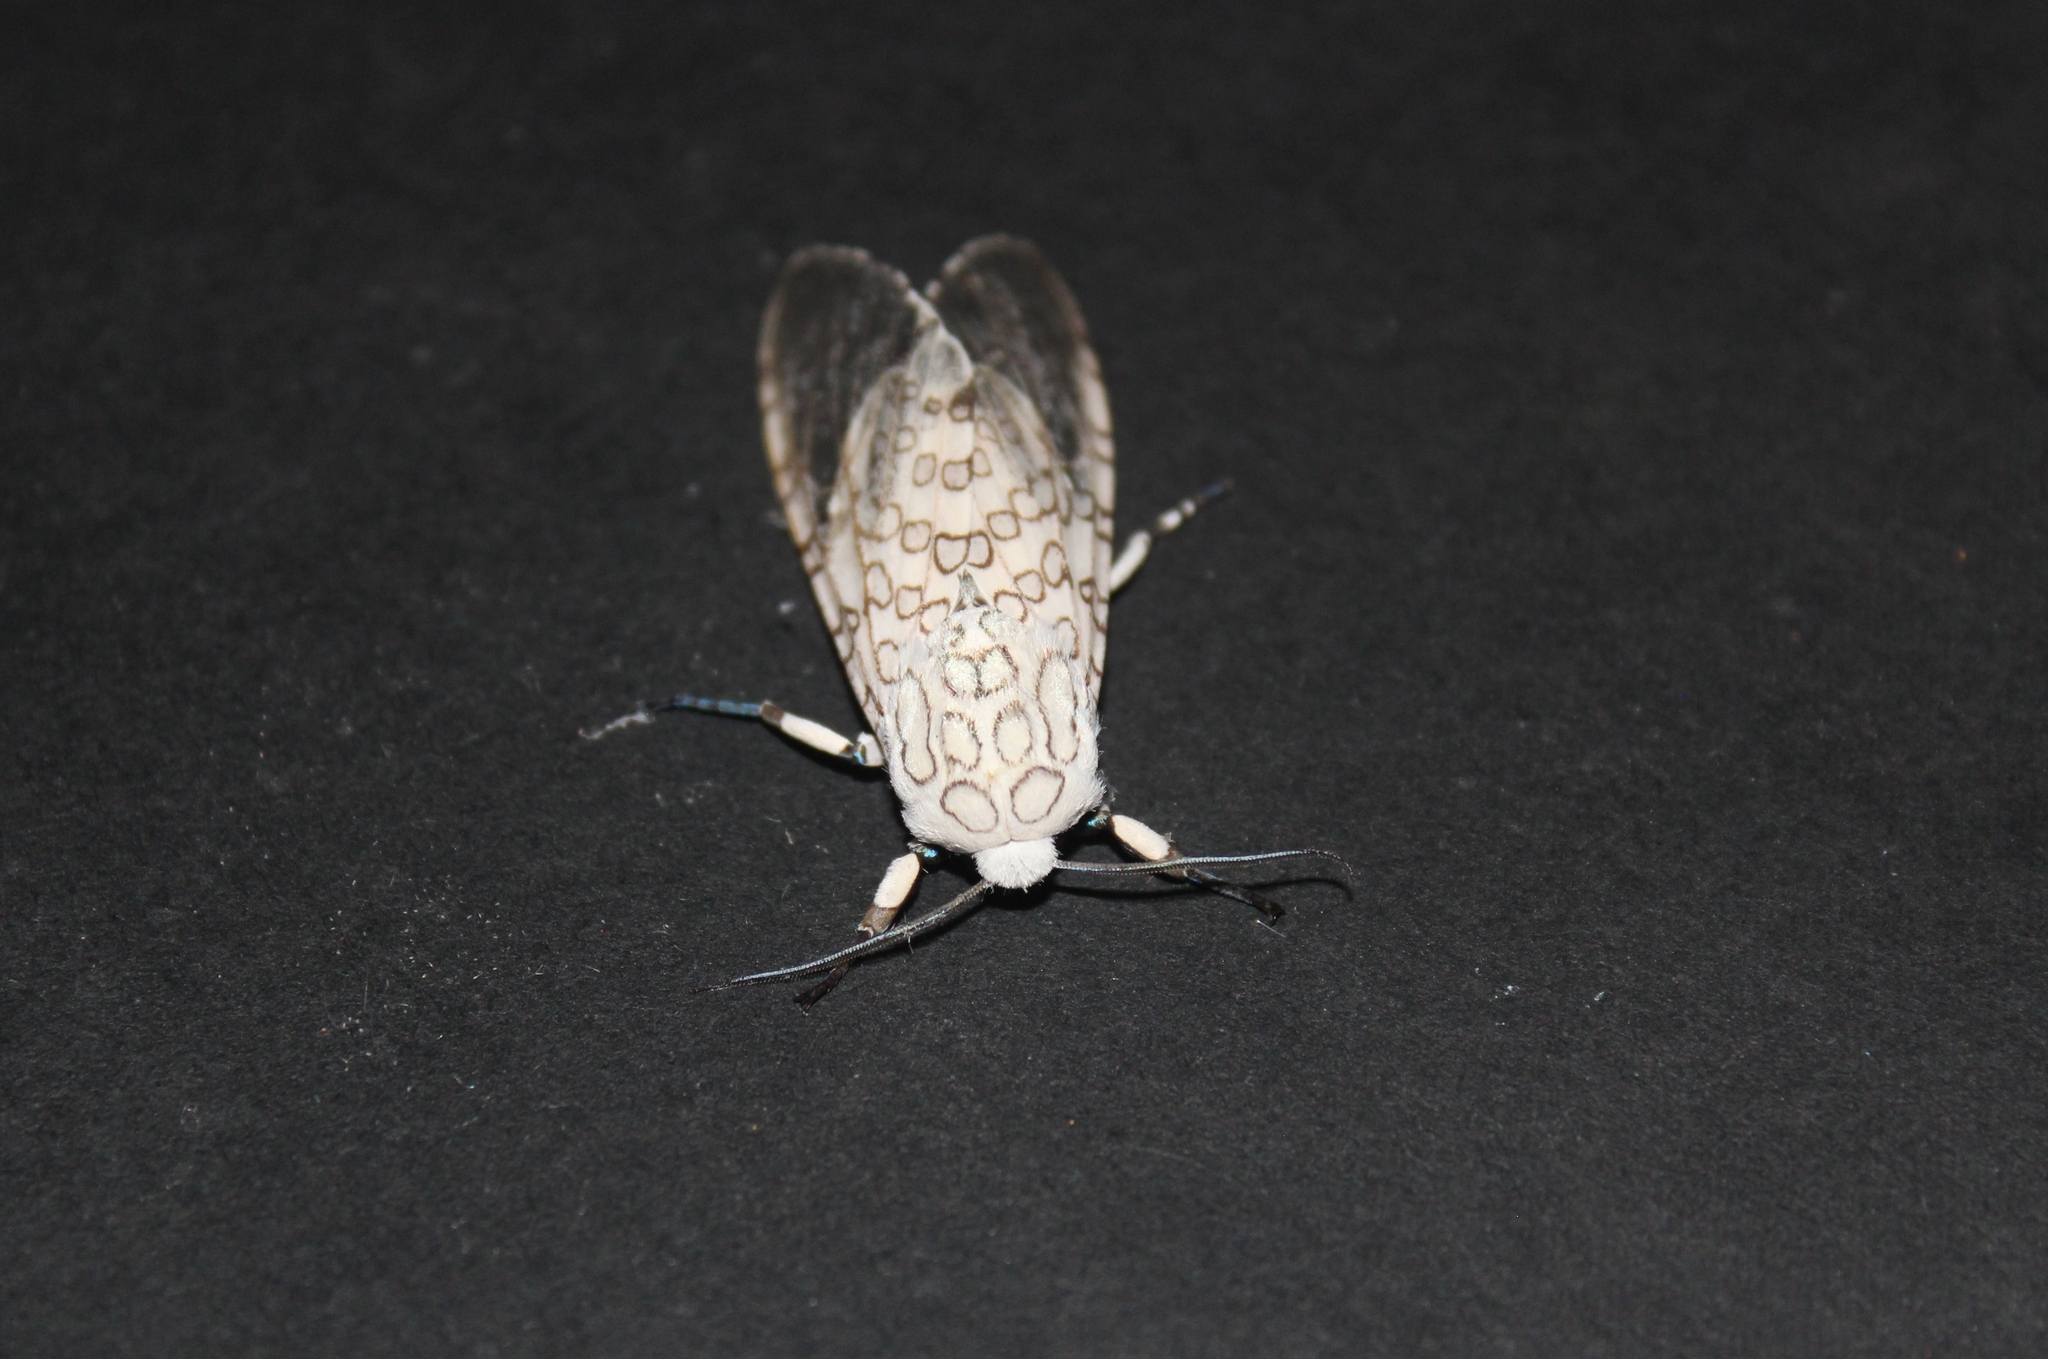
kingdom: Animalia
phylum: Arthropoda
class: Insecta
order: Lepidoptera
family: Erebidae
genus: Hypercompe
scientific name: Hypercompe caudata
